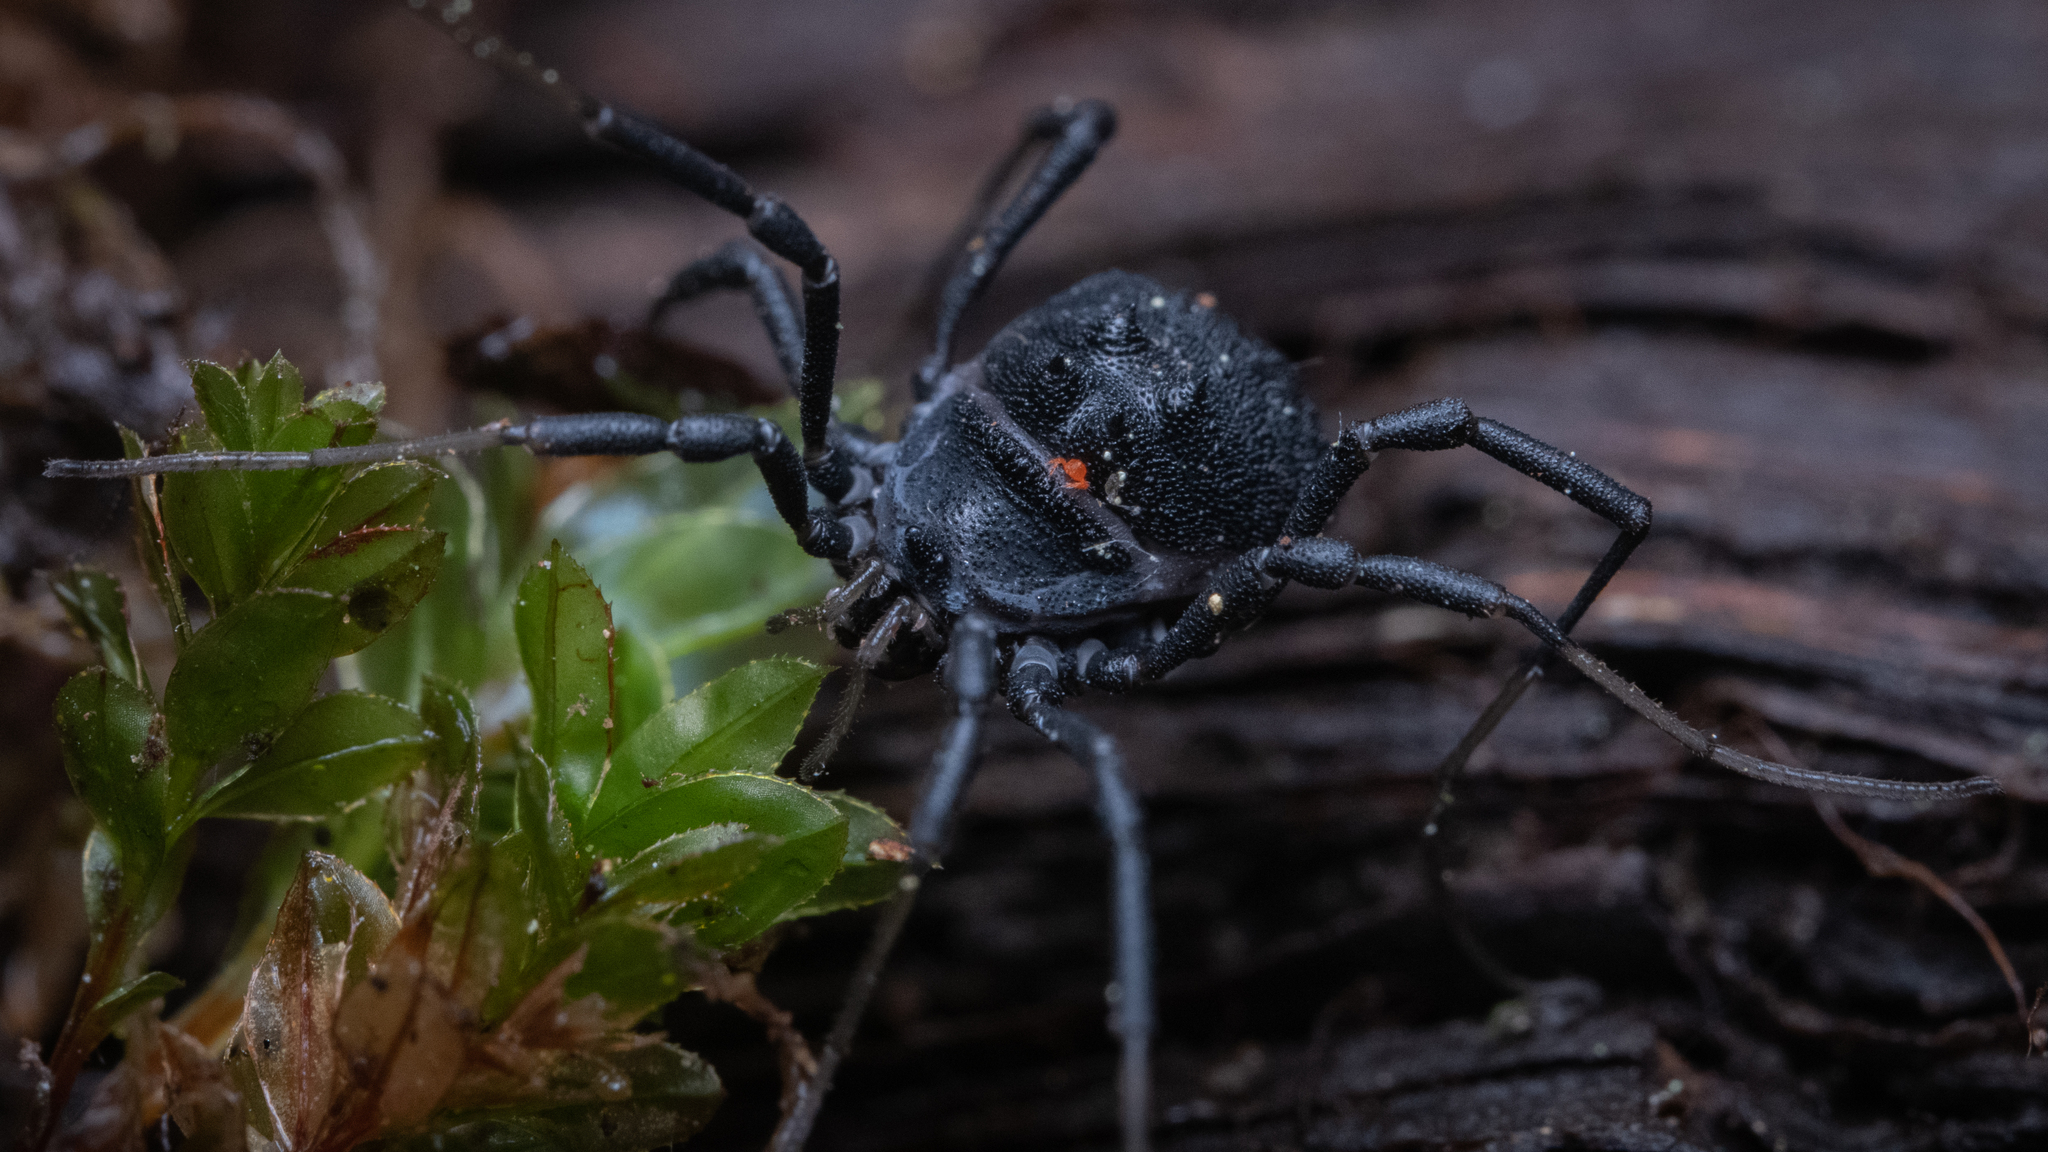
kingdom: Animalia
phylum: Arthropoda
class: Arachnida
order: Opiliones
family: Ischyropsalididae
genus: Acuclavella
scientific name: Acuclavella
